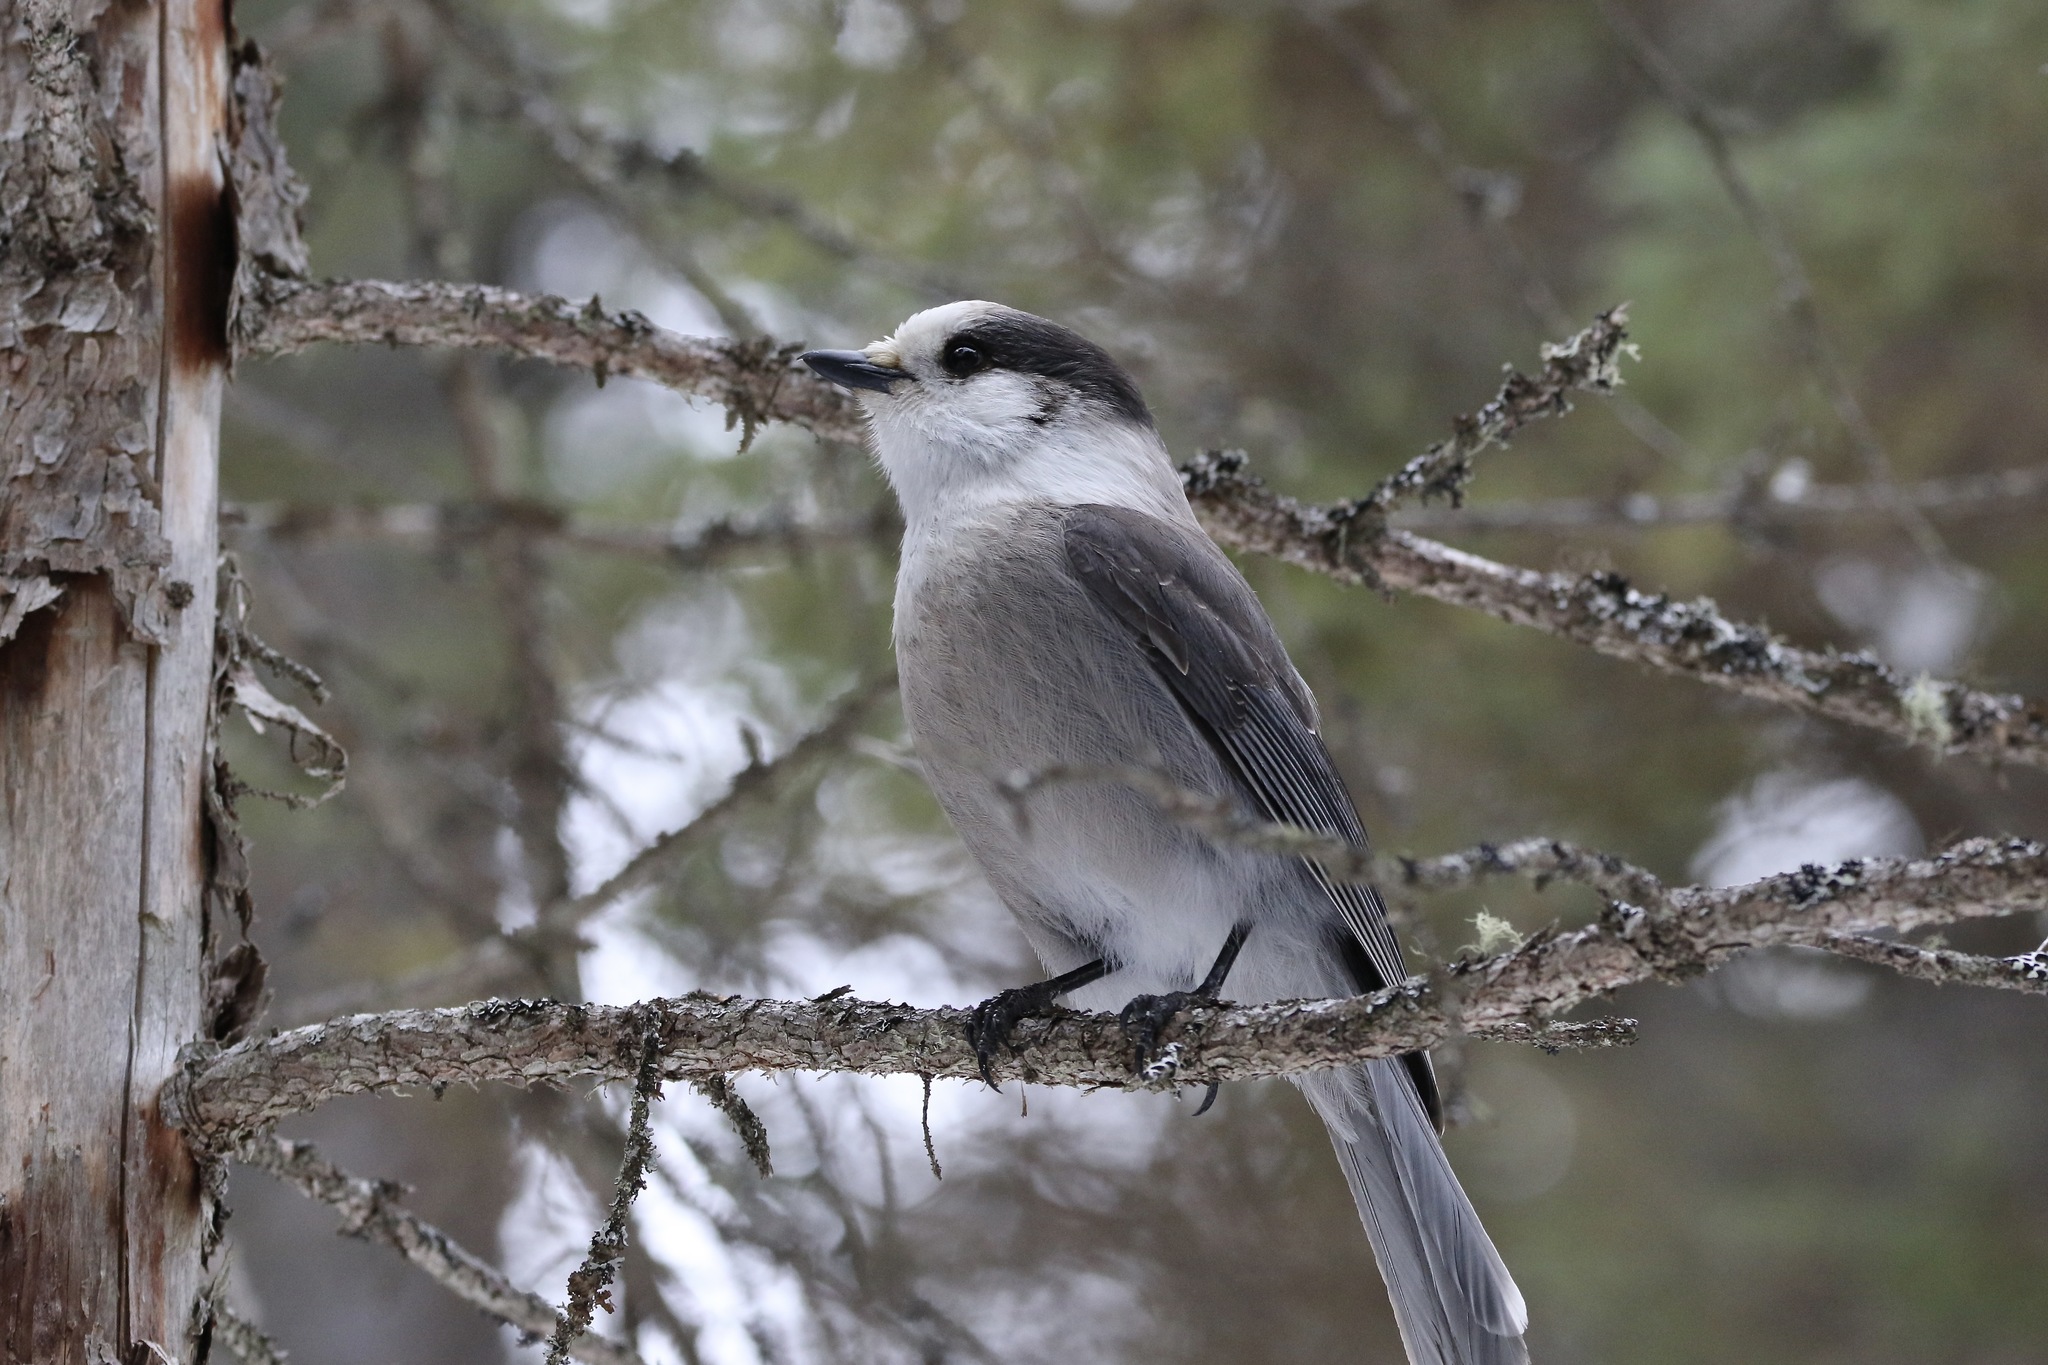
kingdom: Animalia
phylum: Chordata
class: Aves
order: Passeriformes
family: Corvidae
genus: Perisoreus
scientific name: Perisoreus canadensis
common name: Gray jay
